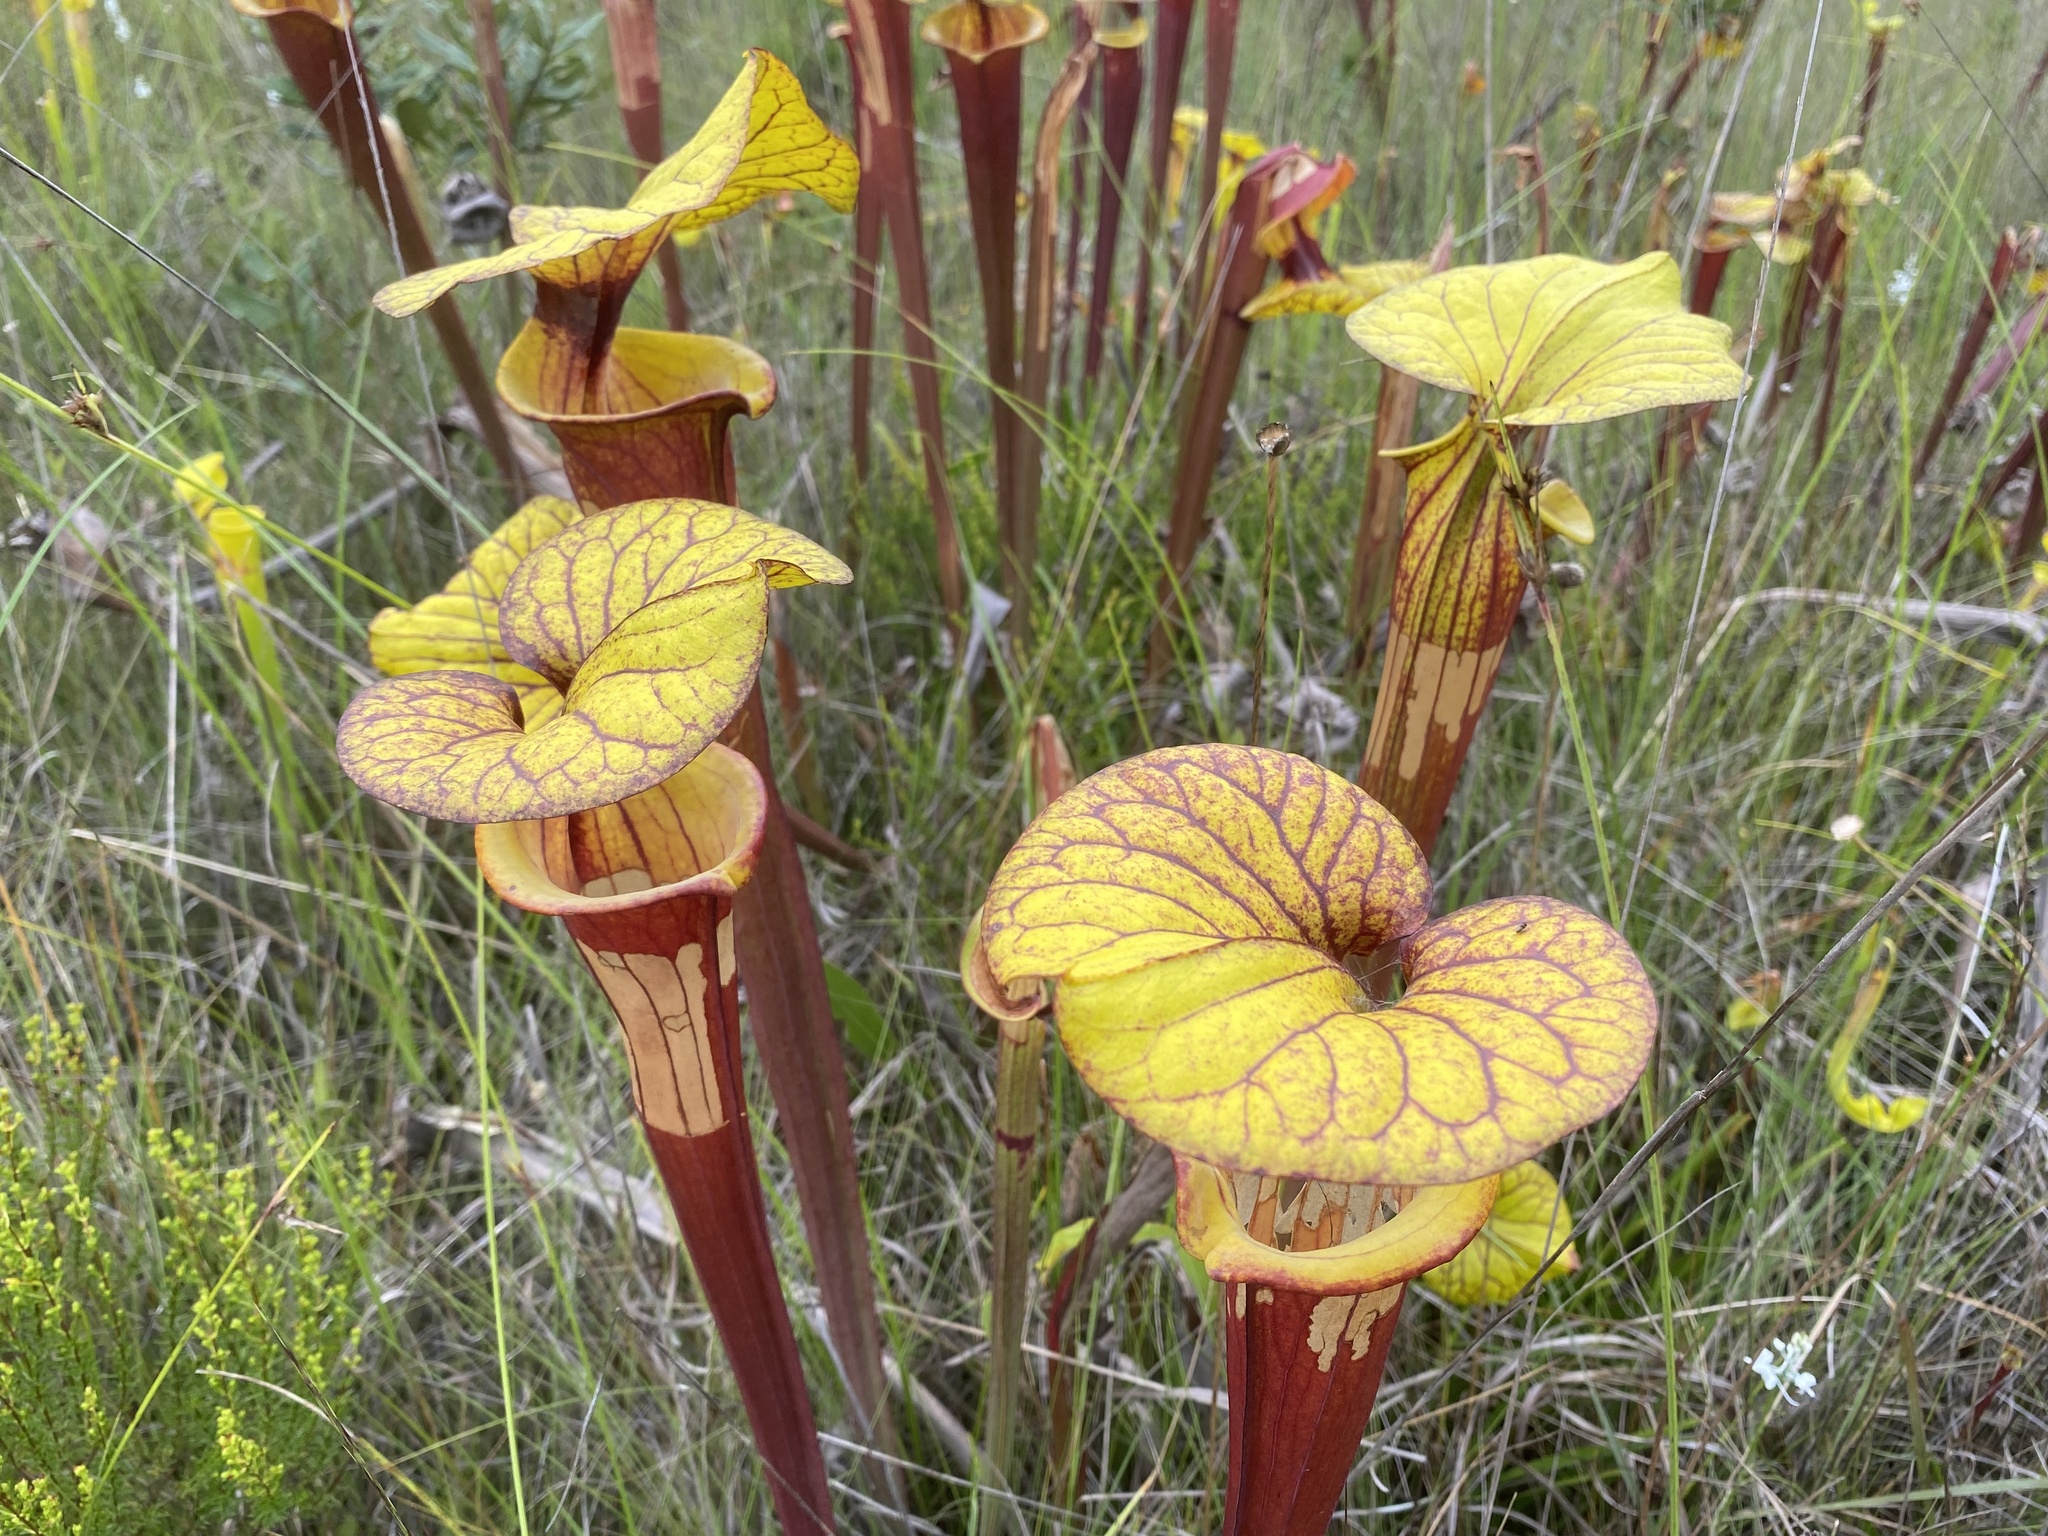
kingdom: Plantae
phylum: Tracheophyta
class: Magnoliopsida
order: Ericales
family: Sarraceniaceae
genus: Sarracenia
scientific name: Sarracenia flava
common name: Trumpets
